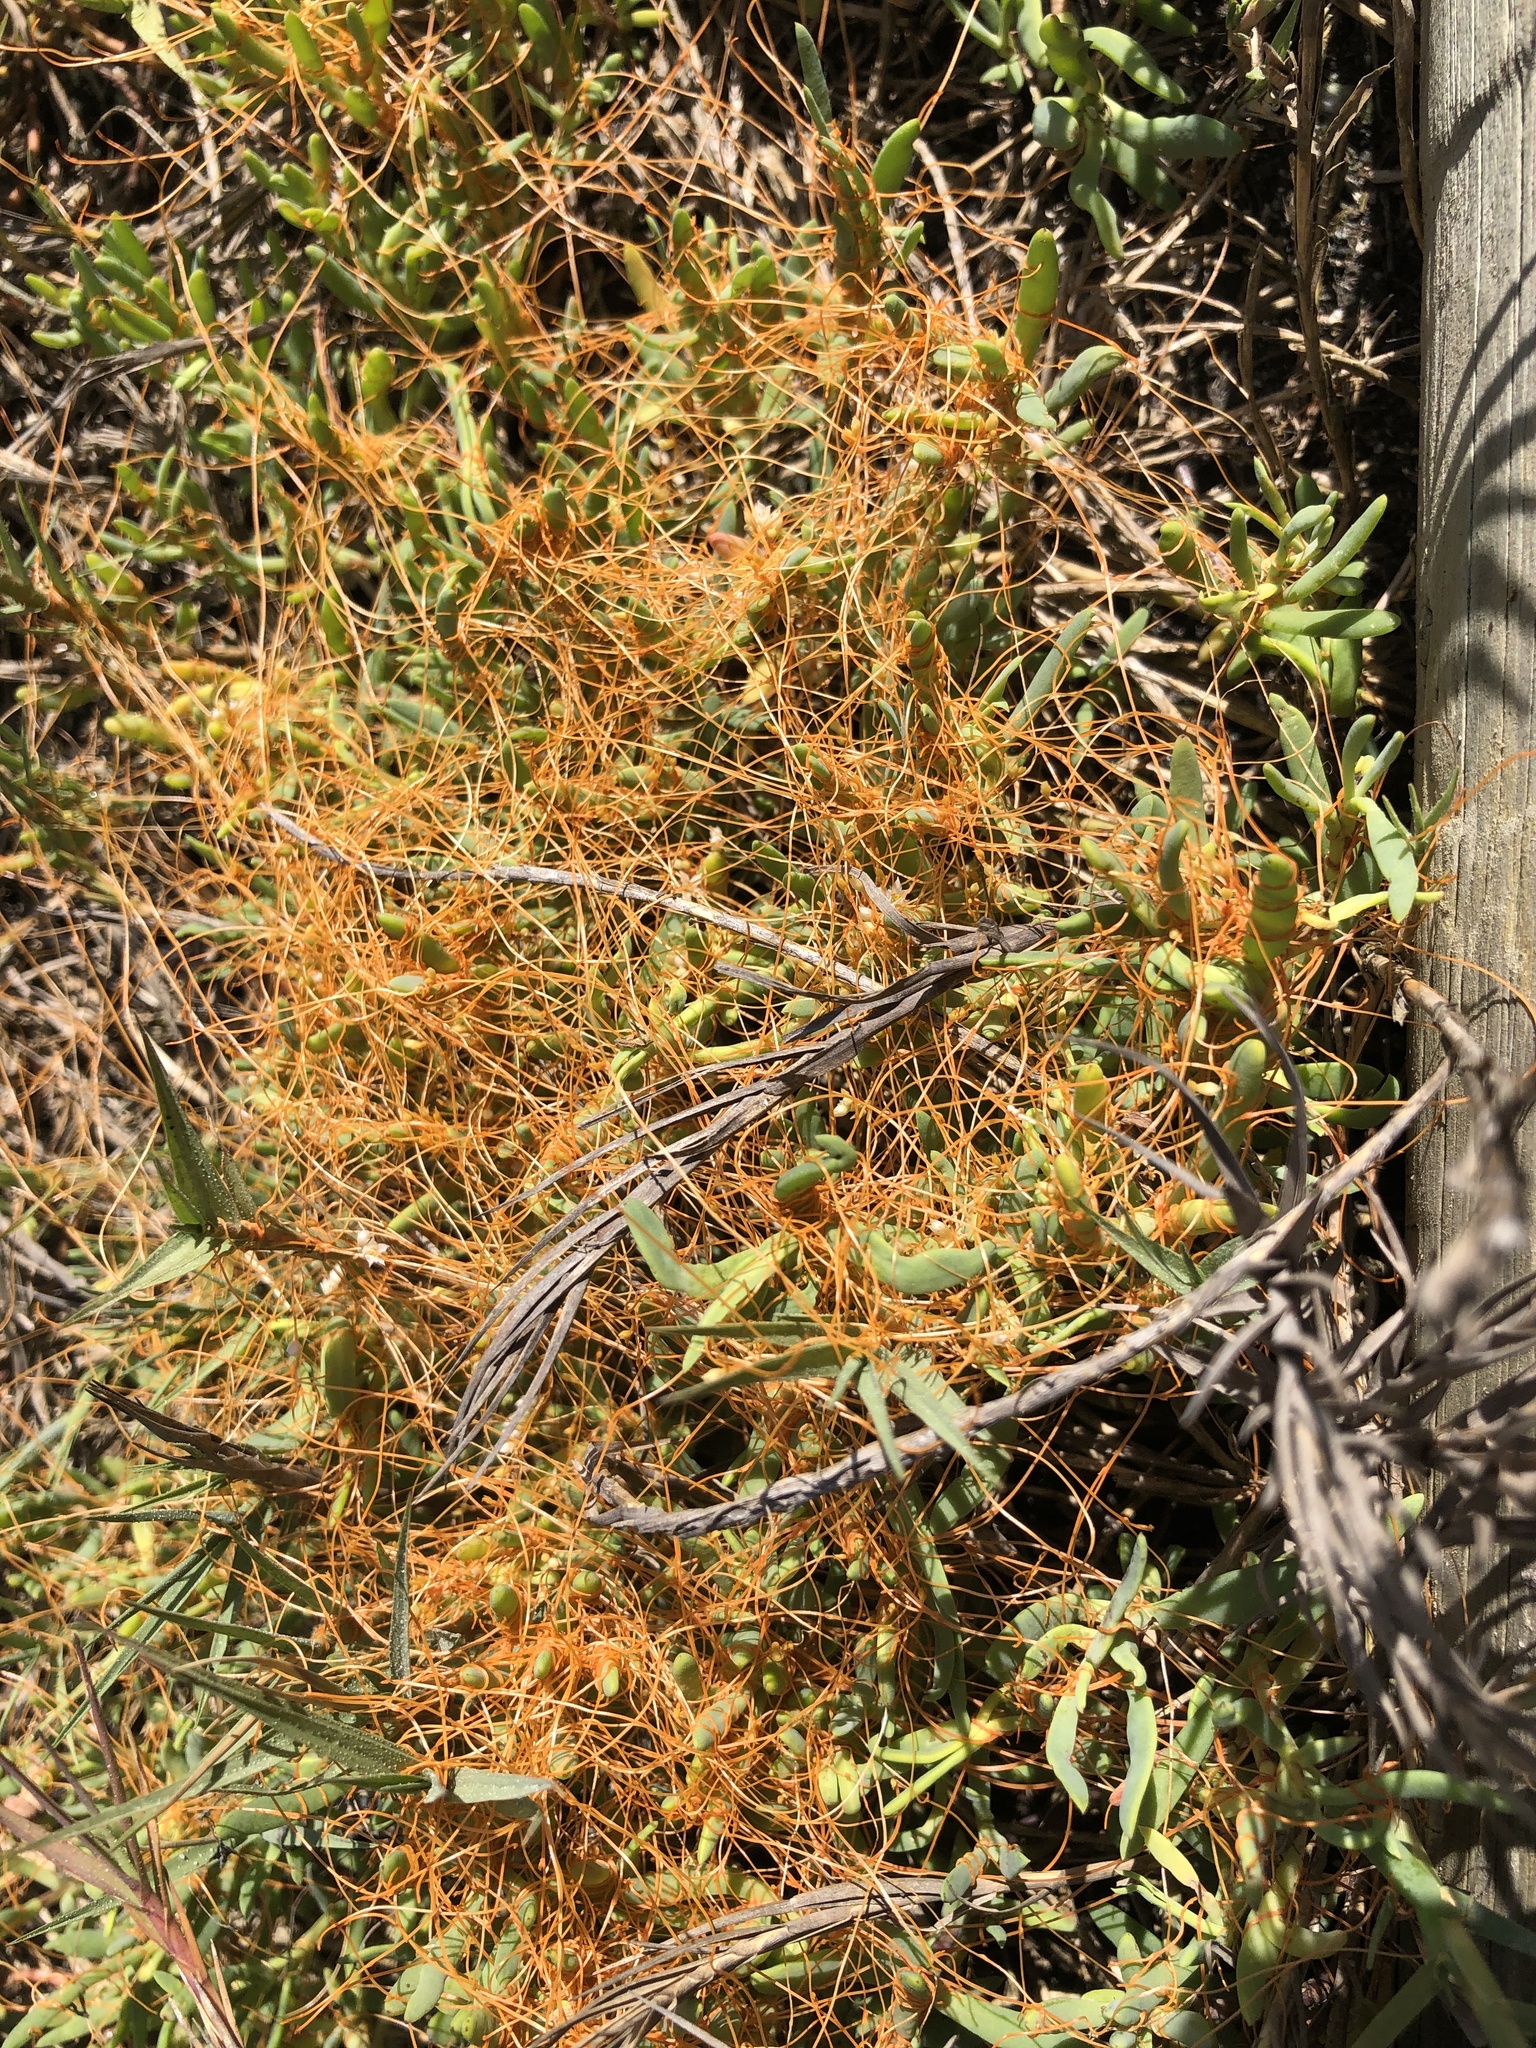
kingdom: Plantae
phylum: Tracheophyta
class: Magnoliopsida
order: Solanales
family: Convolvulaceae
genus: Cuscuta
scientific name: Cuscuta pacifica
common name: Large saltmarsh dodder
